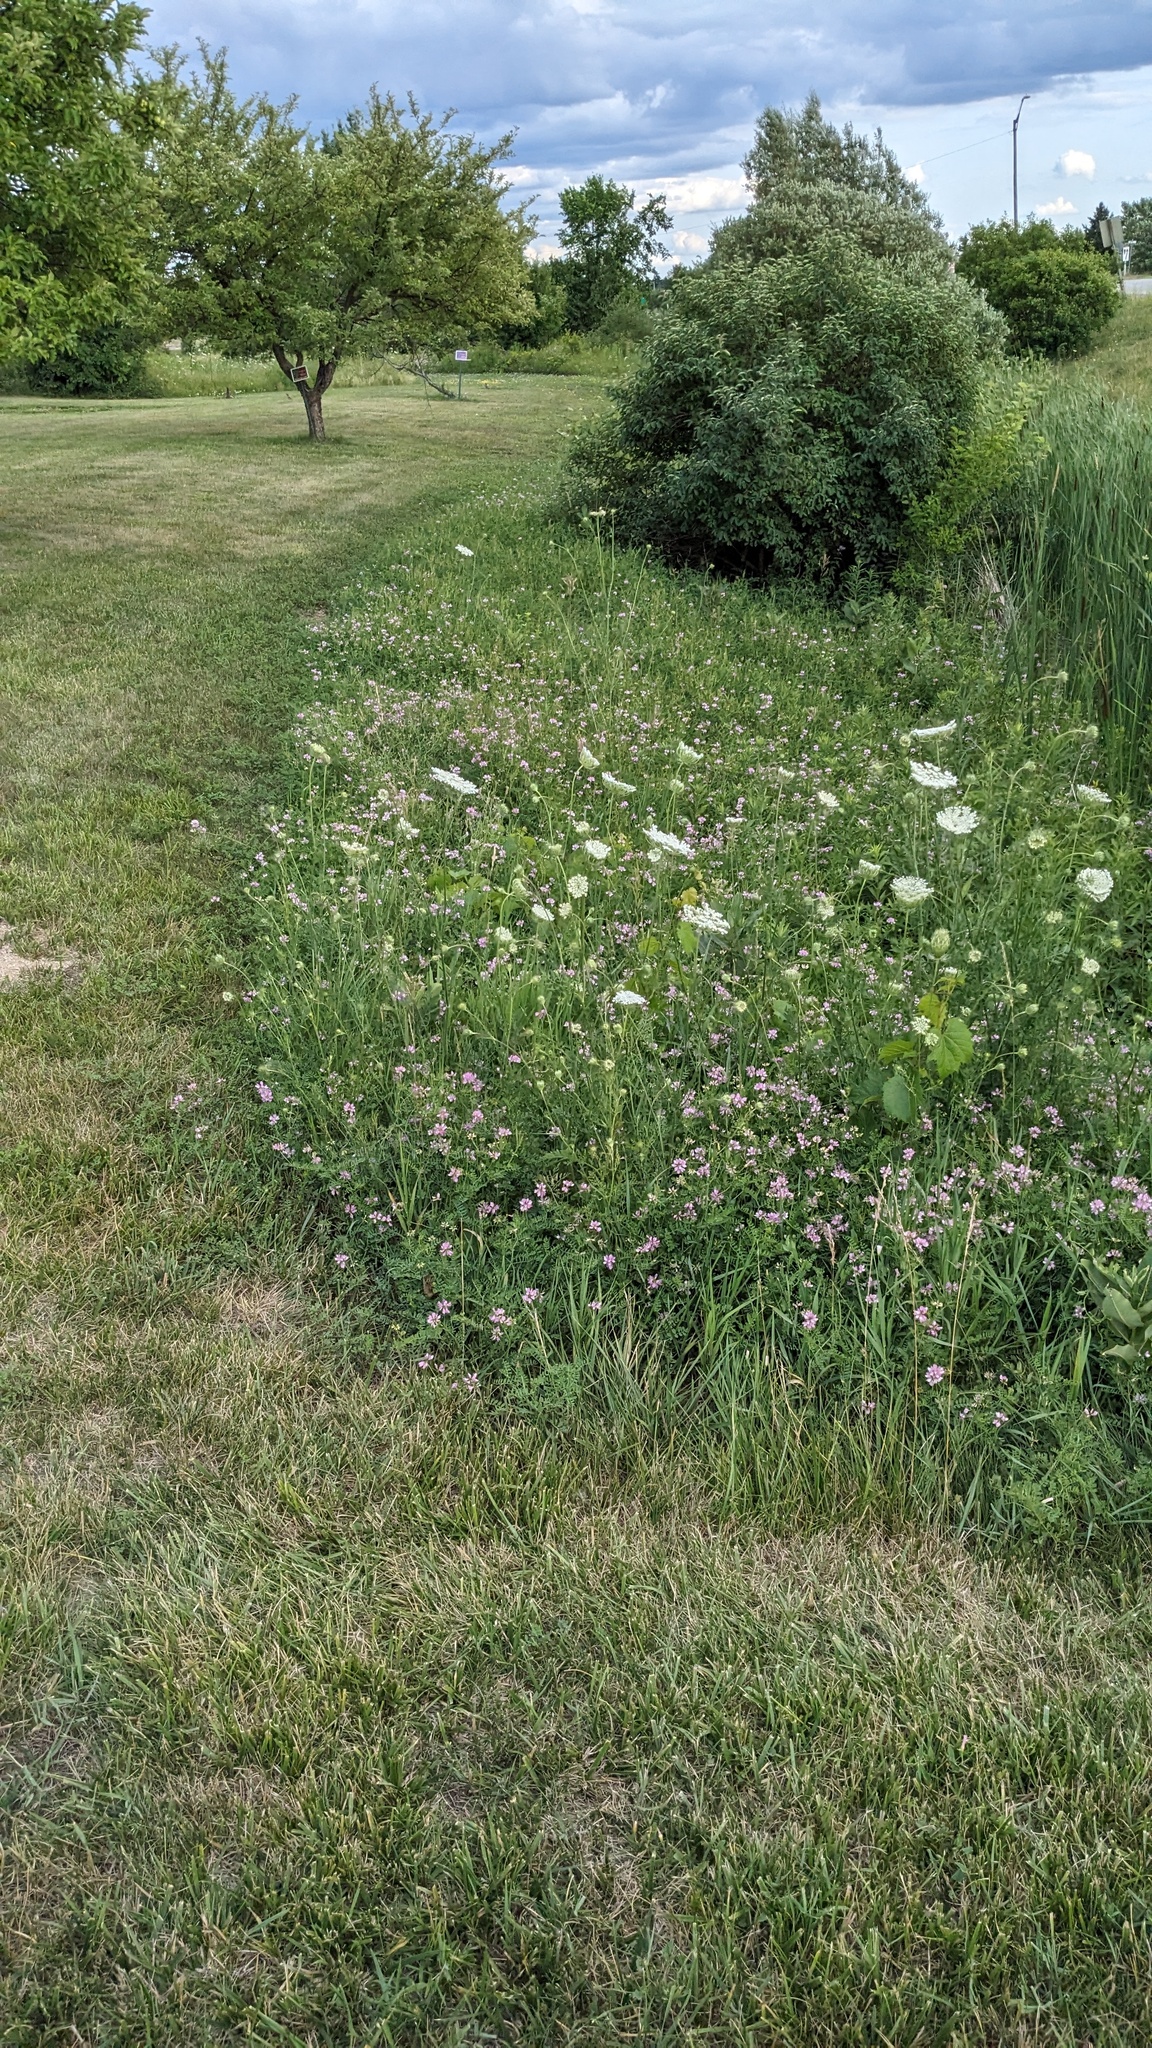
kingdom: Plantae
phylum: Tracheophyta
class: Magnoliopsida
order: Apiales
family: Apiaceae
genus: Daucus
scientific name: Daucus carota
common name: Wild carrot
